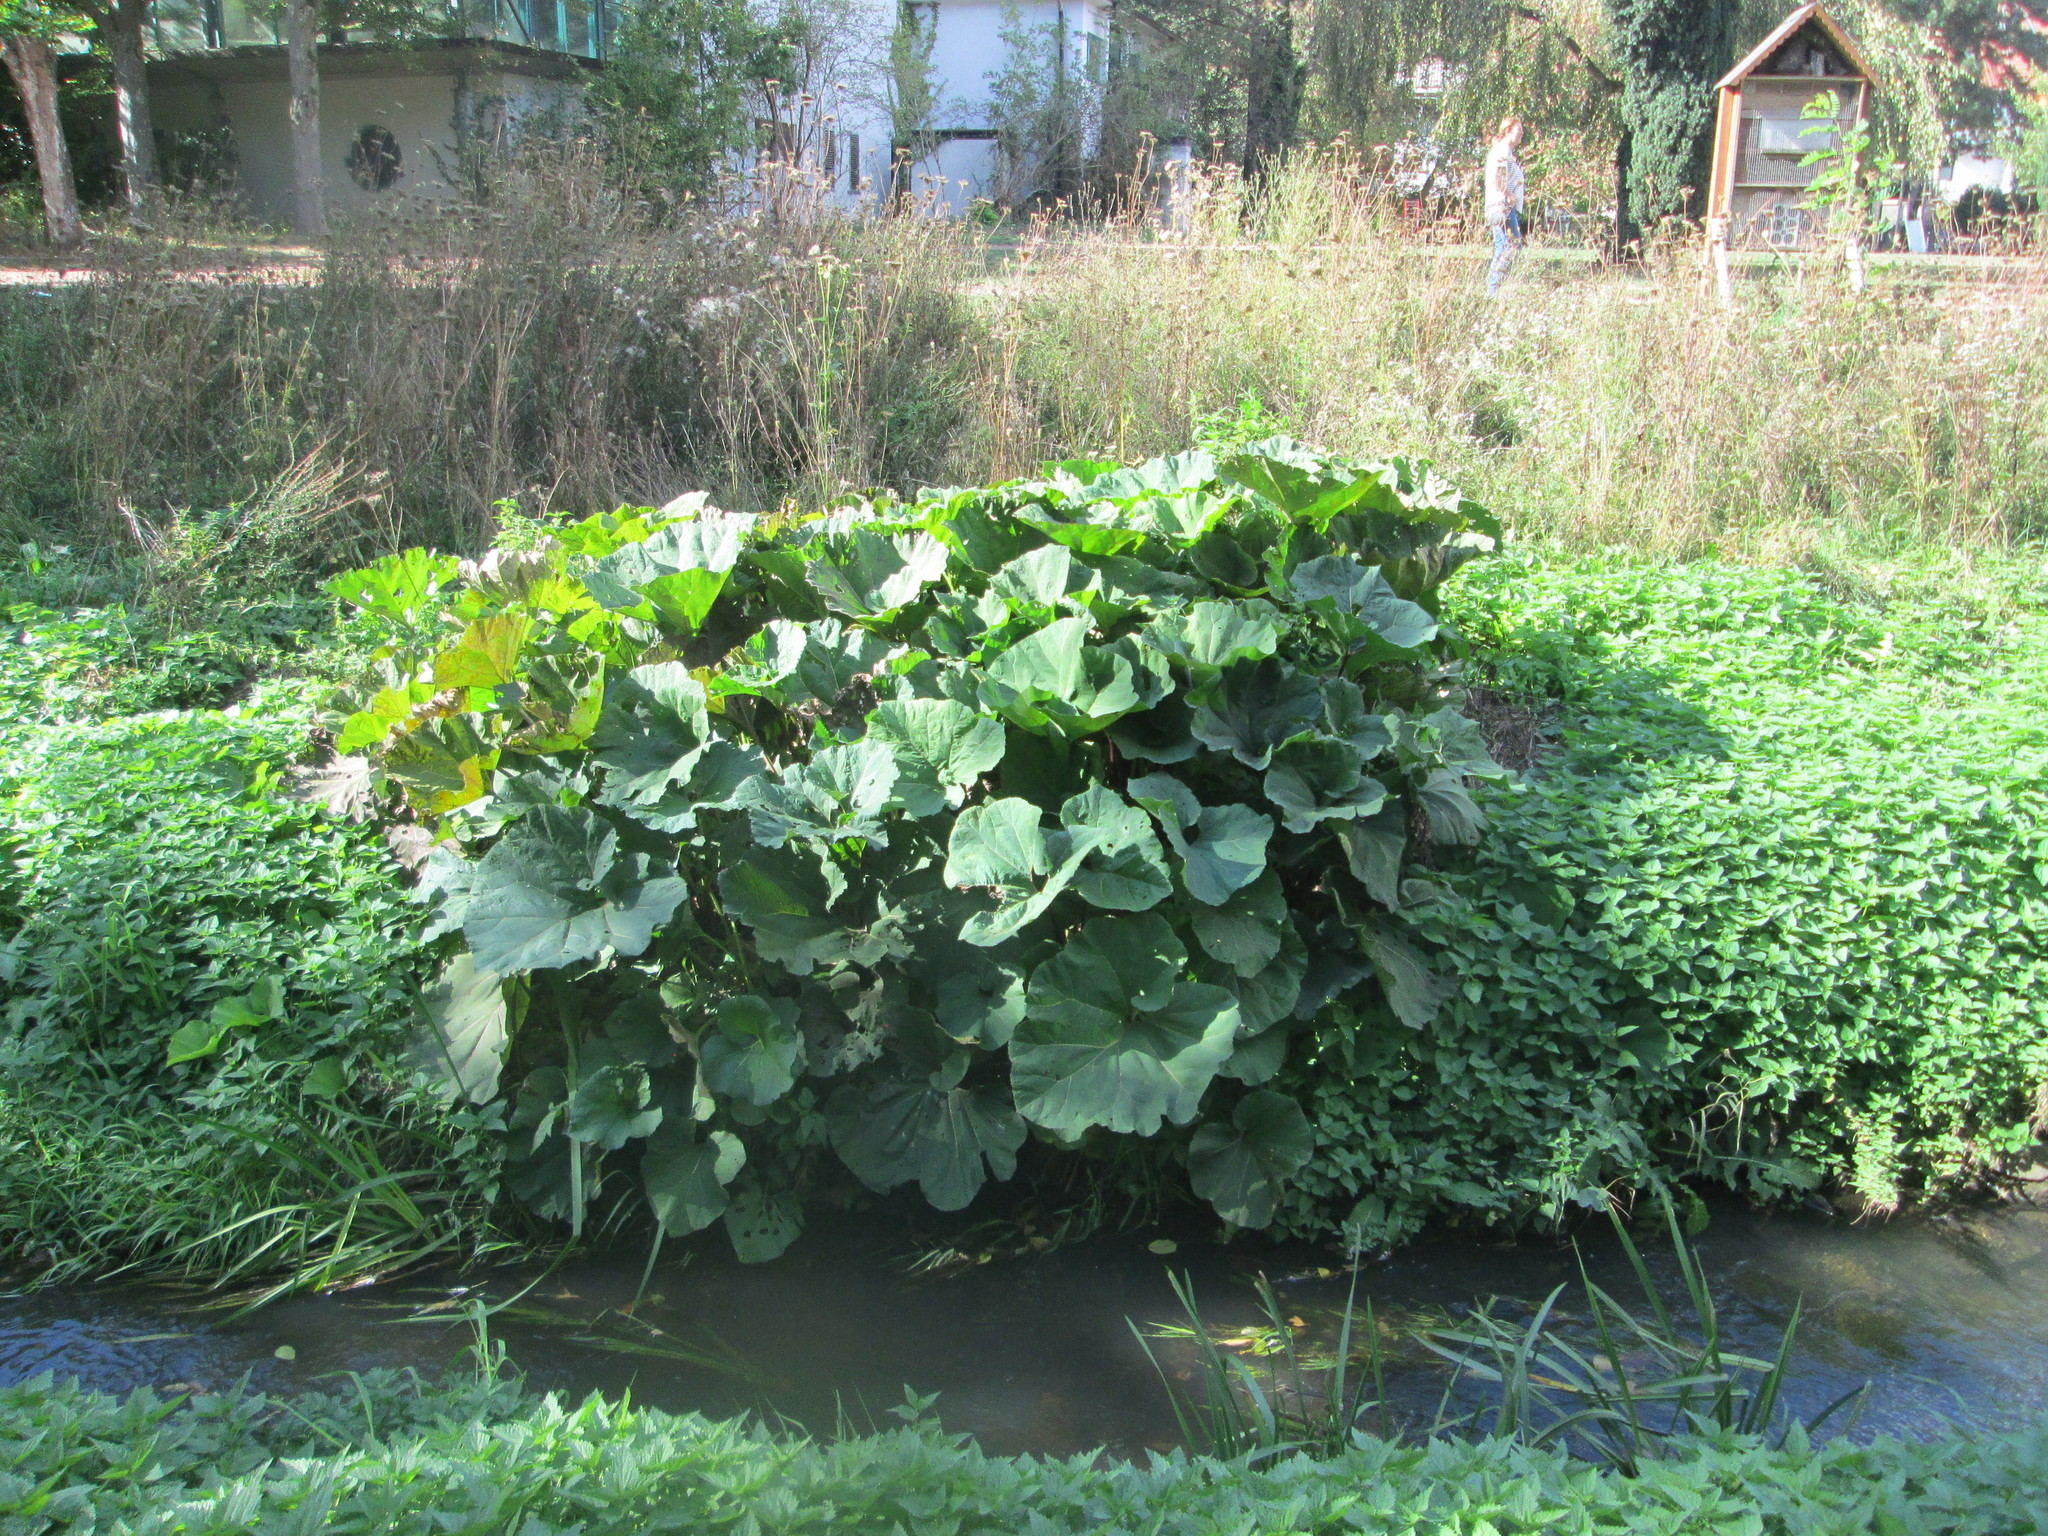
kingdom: Plantae
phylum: Tracheophyta
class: Magnoliopsida
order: Asterales
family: Asteraceae
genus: Petasites
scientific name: Petasites hybridus
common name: Butterbur
